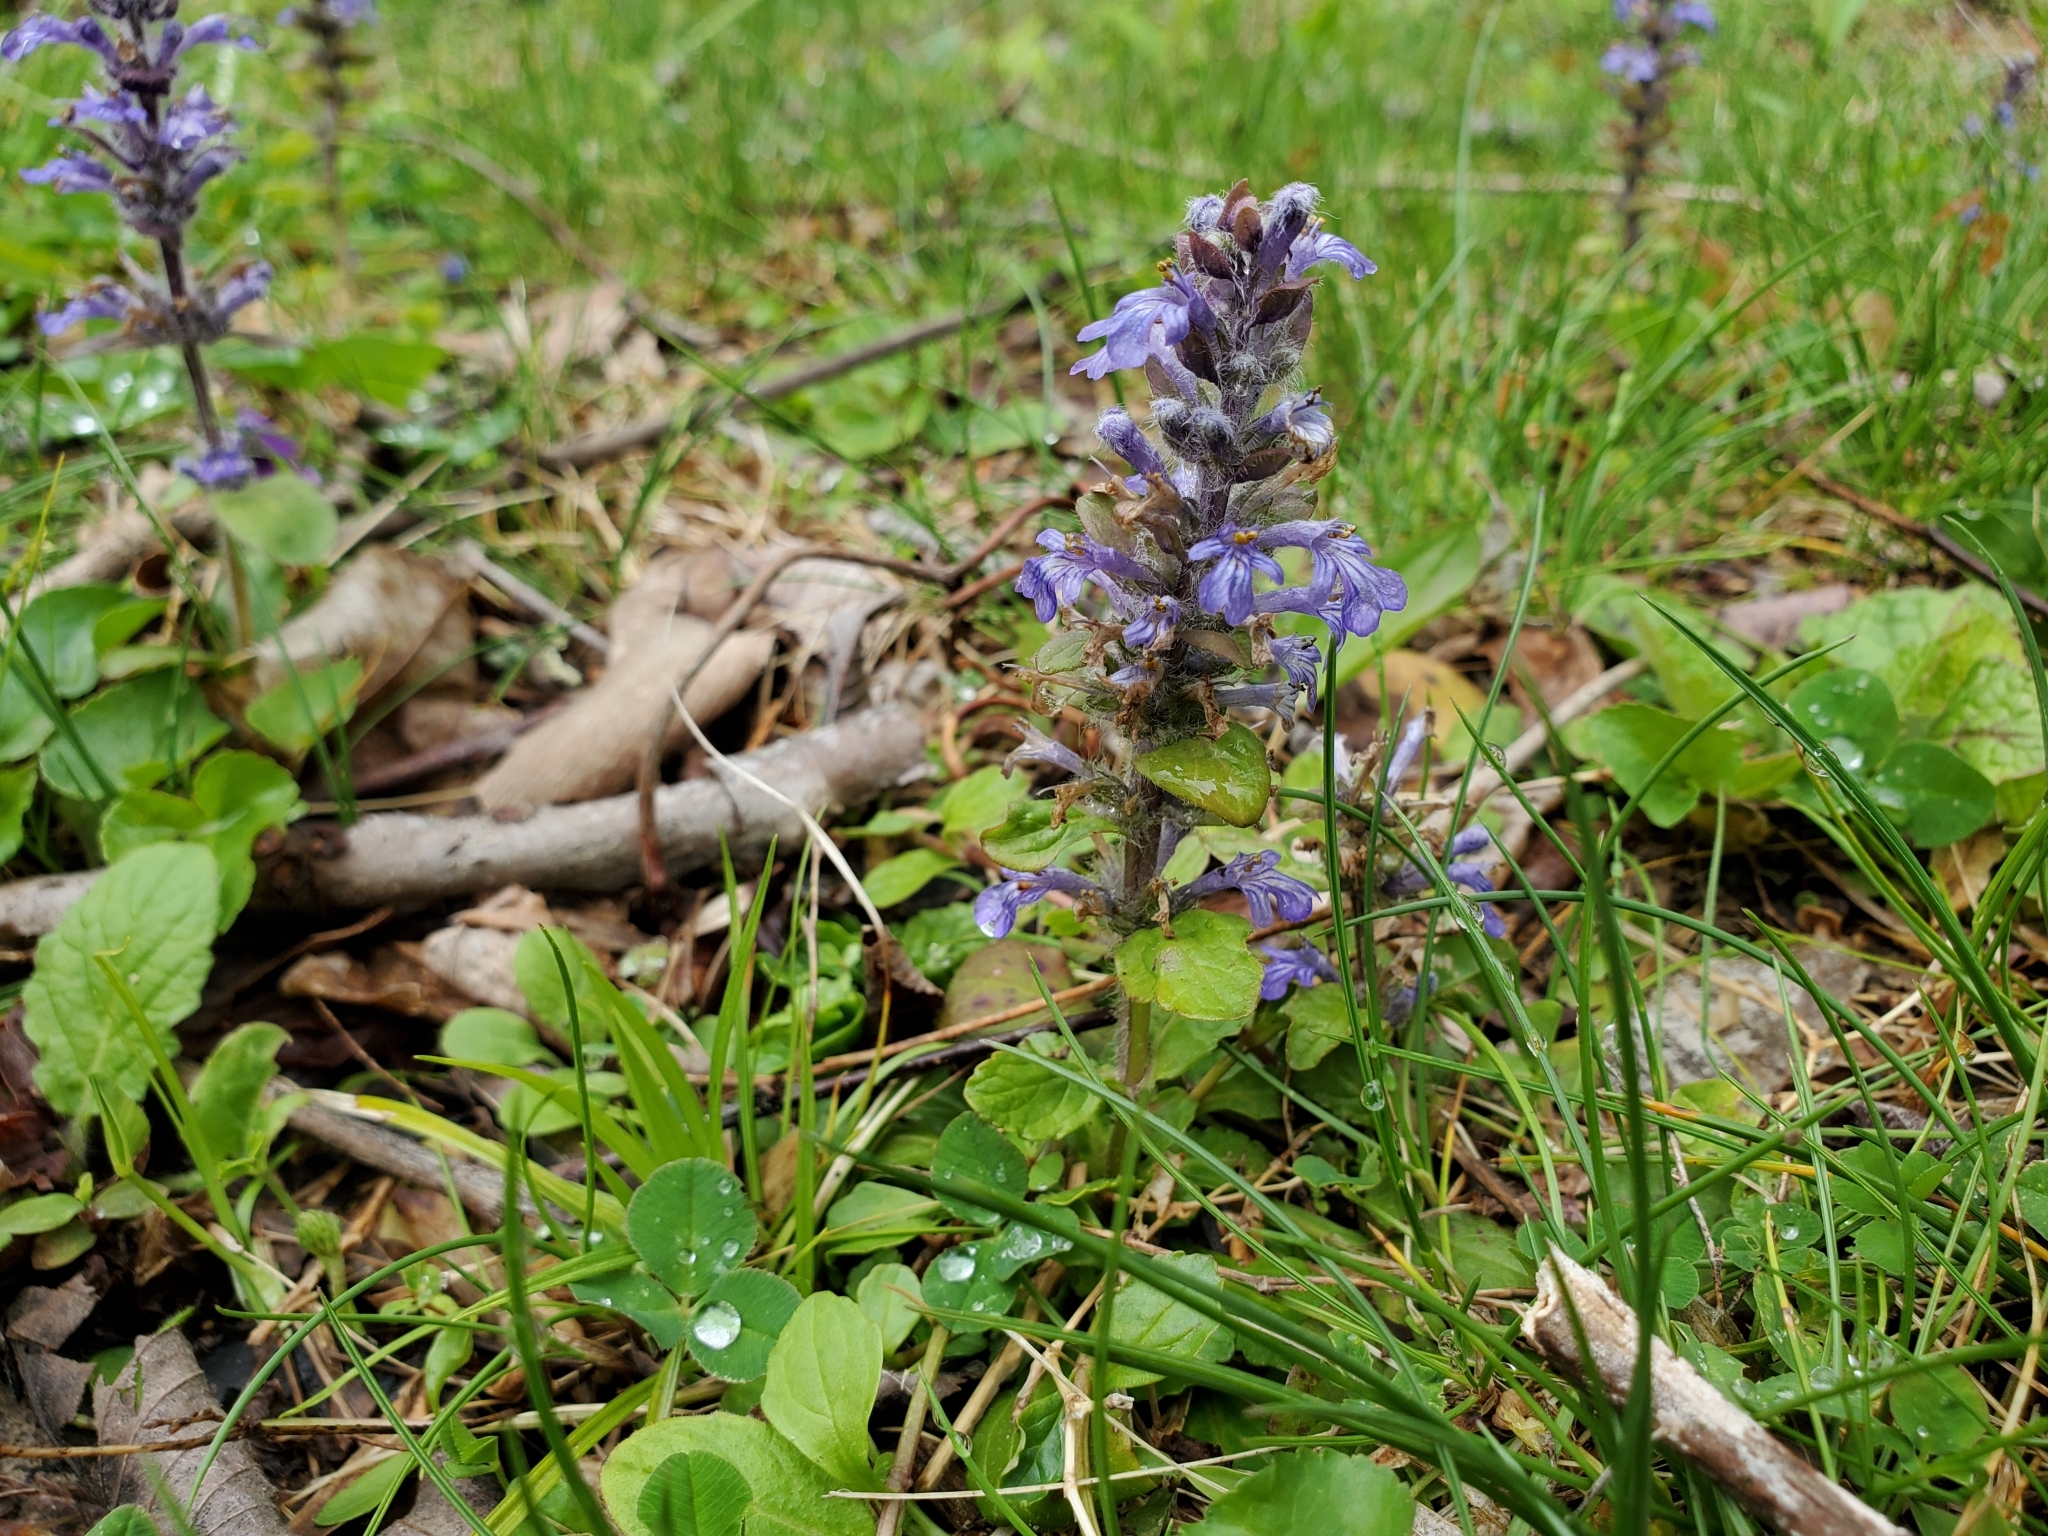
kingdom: Plantae
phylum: Tracheophyta
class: Magnoliopsida
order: Lamiales
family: Lamiaceae
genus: Ajuga
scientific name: Ajuga reptans
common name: Bugle
